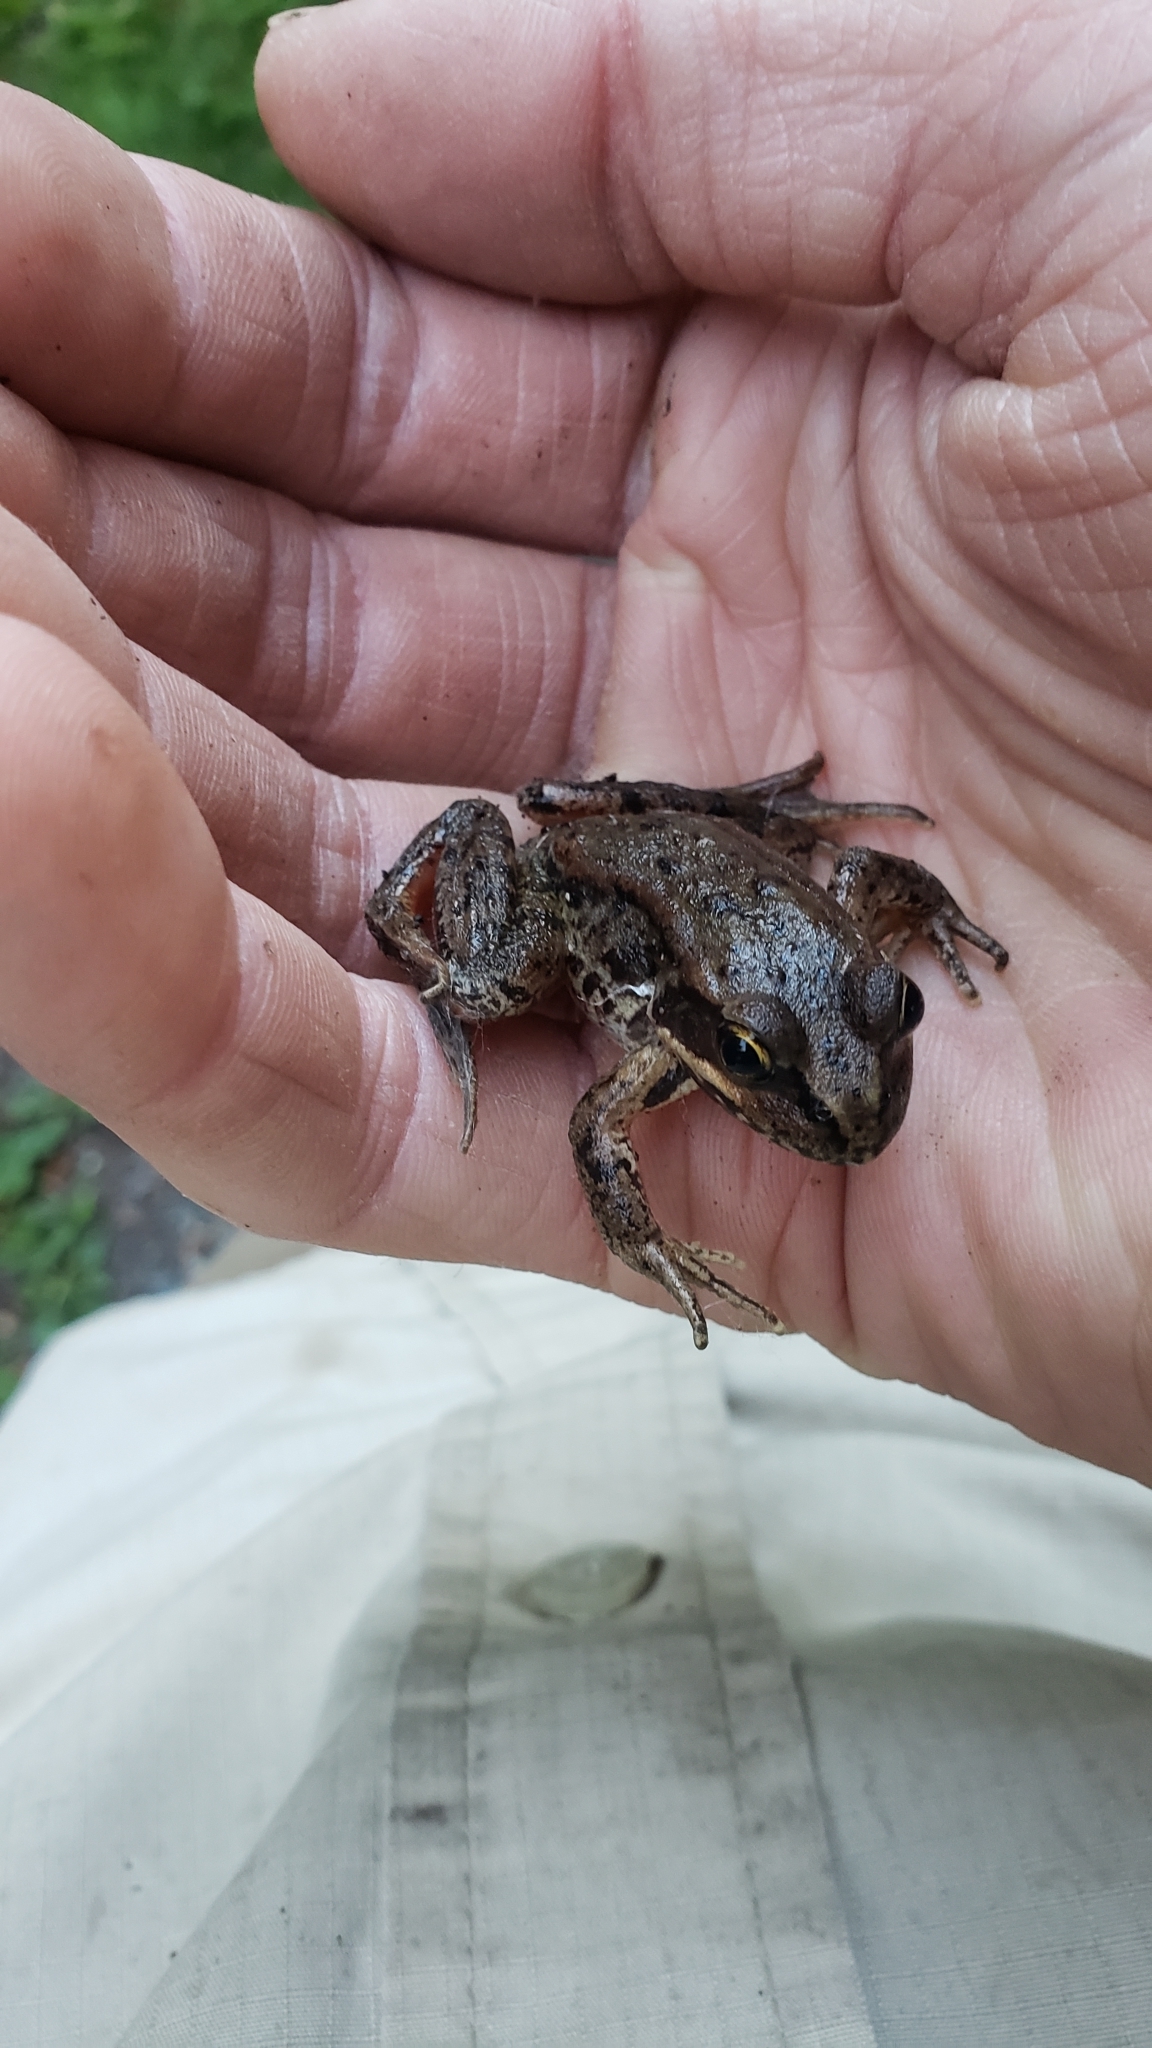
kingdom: Animalia
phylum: Chordata
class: Amphibia
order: Anura
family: Ranidae
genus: Rana
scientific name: Rana aurora
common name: Red-legged frog
